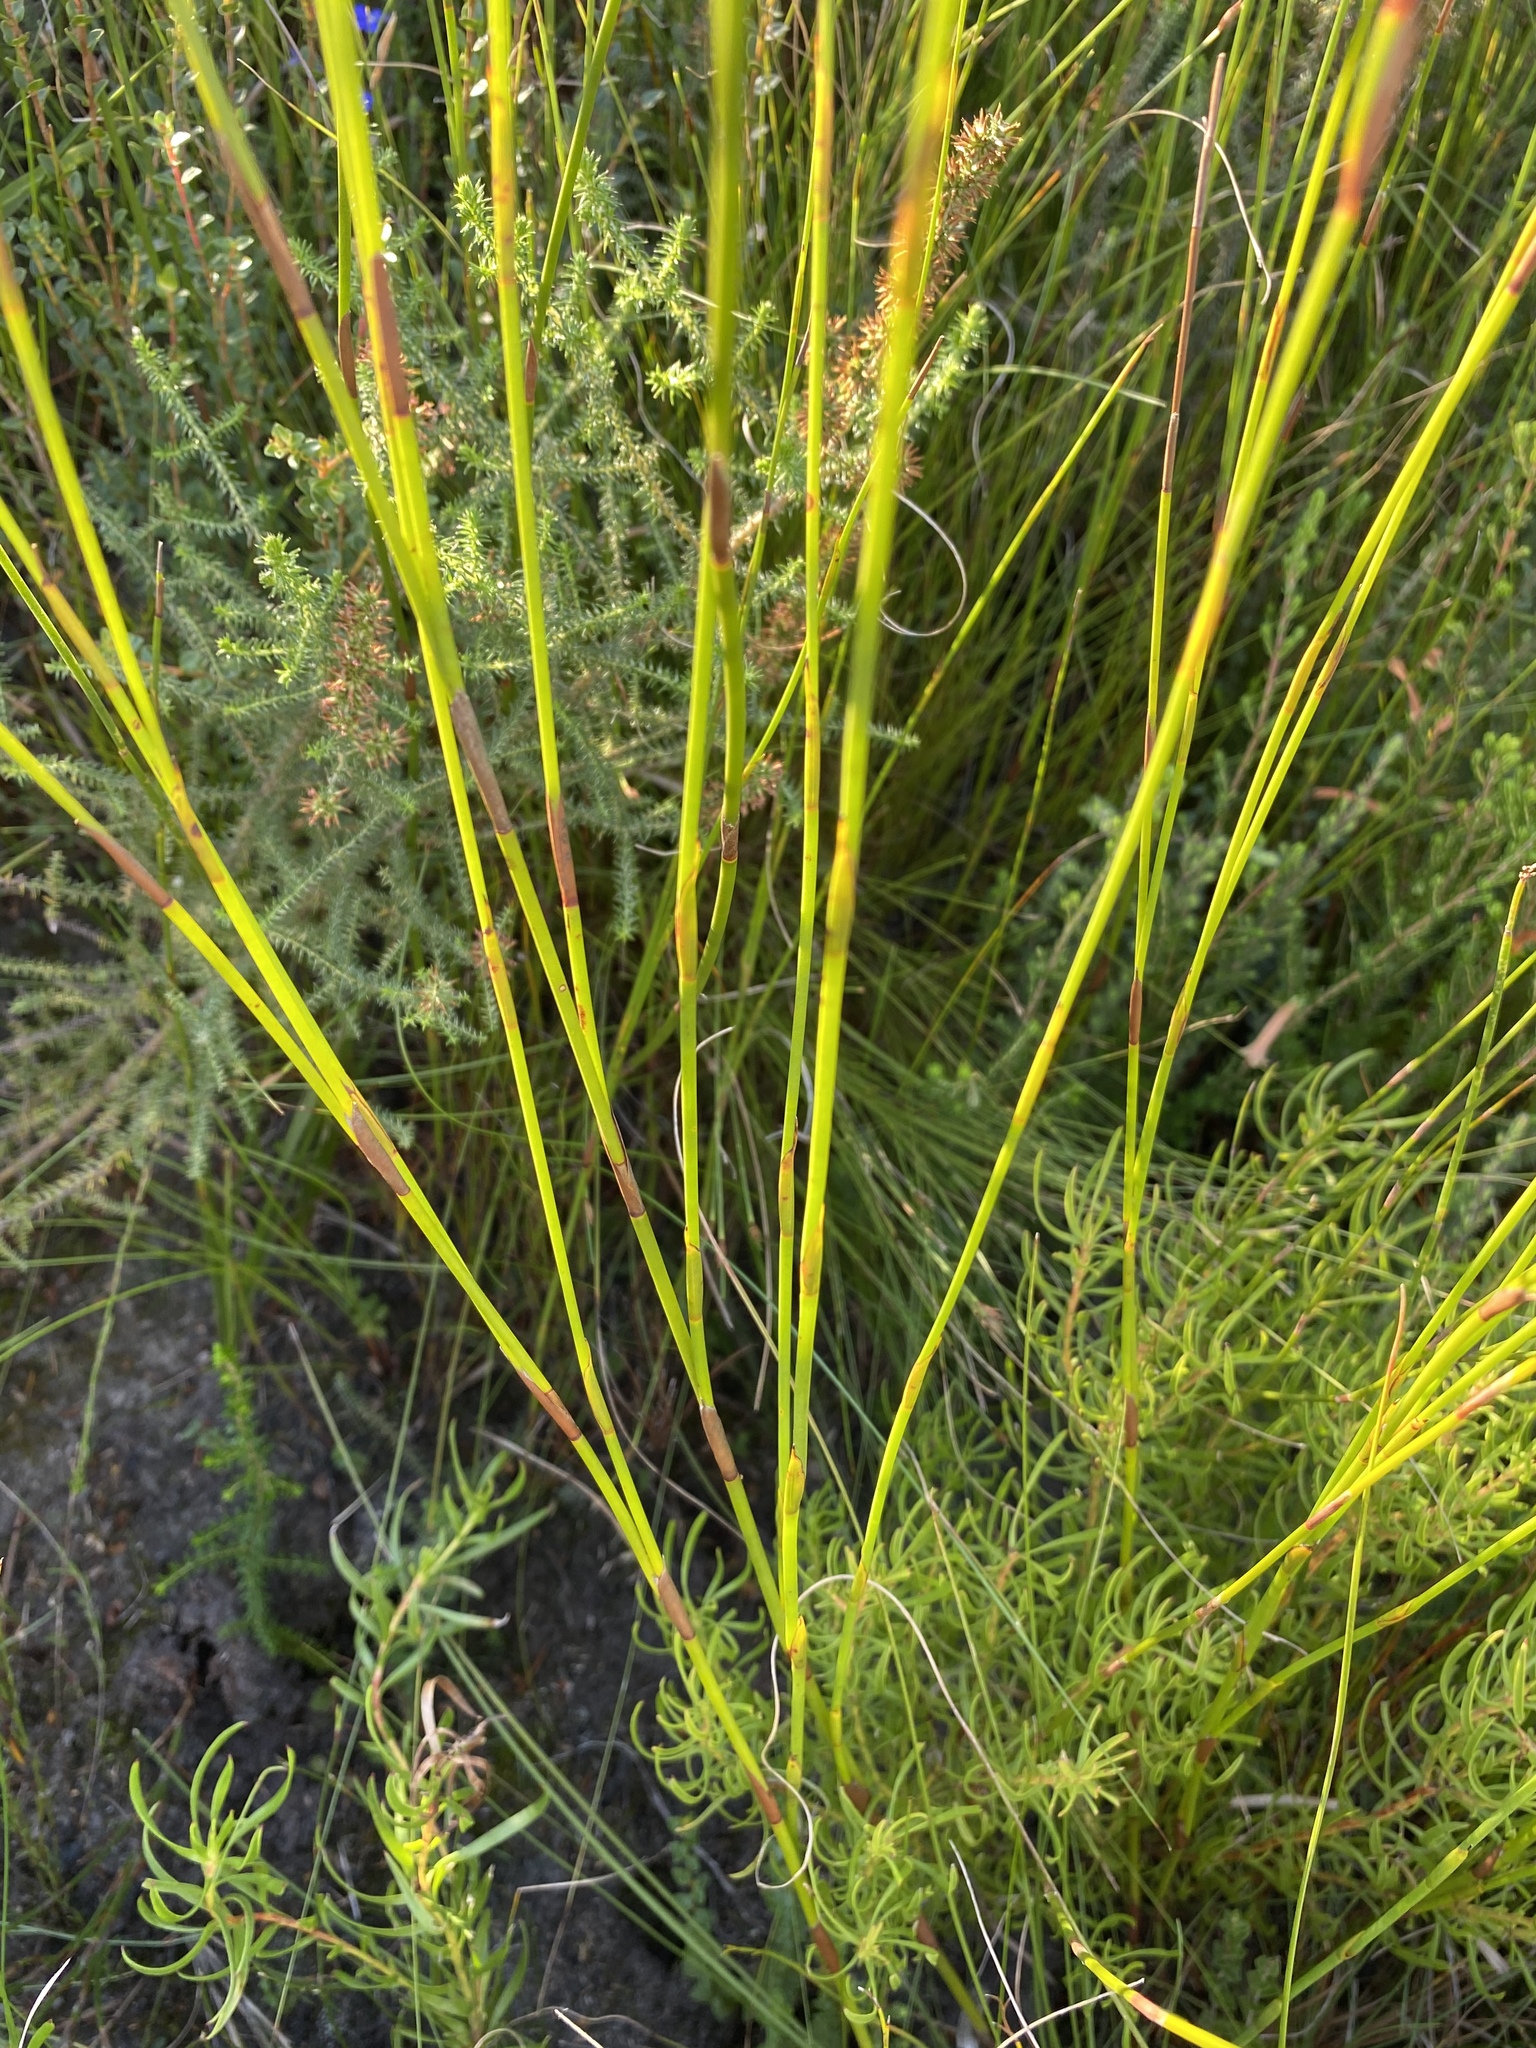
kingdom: Plantae
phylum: Tracheophyta
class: Liliopsida
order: Poales
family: Restionaceae
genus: Platycaulos
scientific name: Platycaulos compressus
